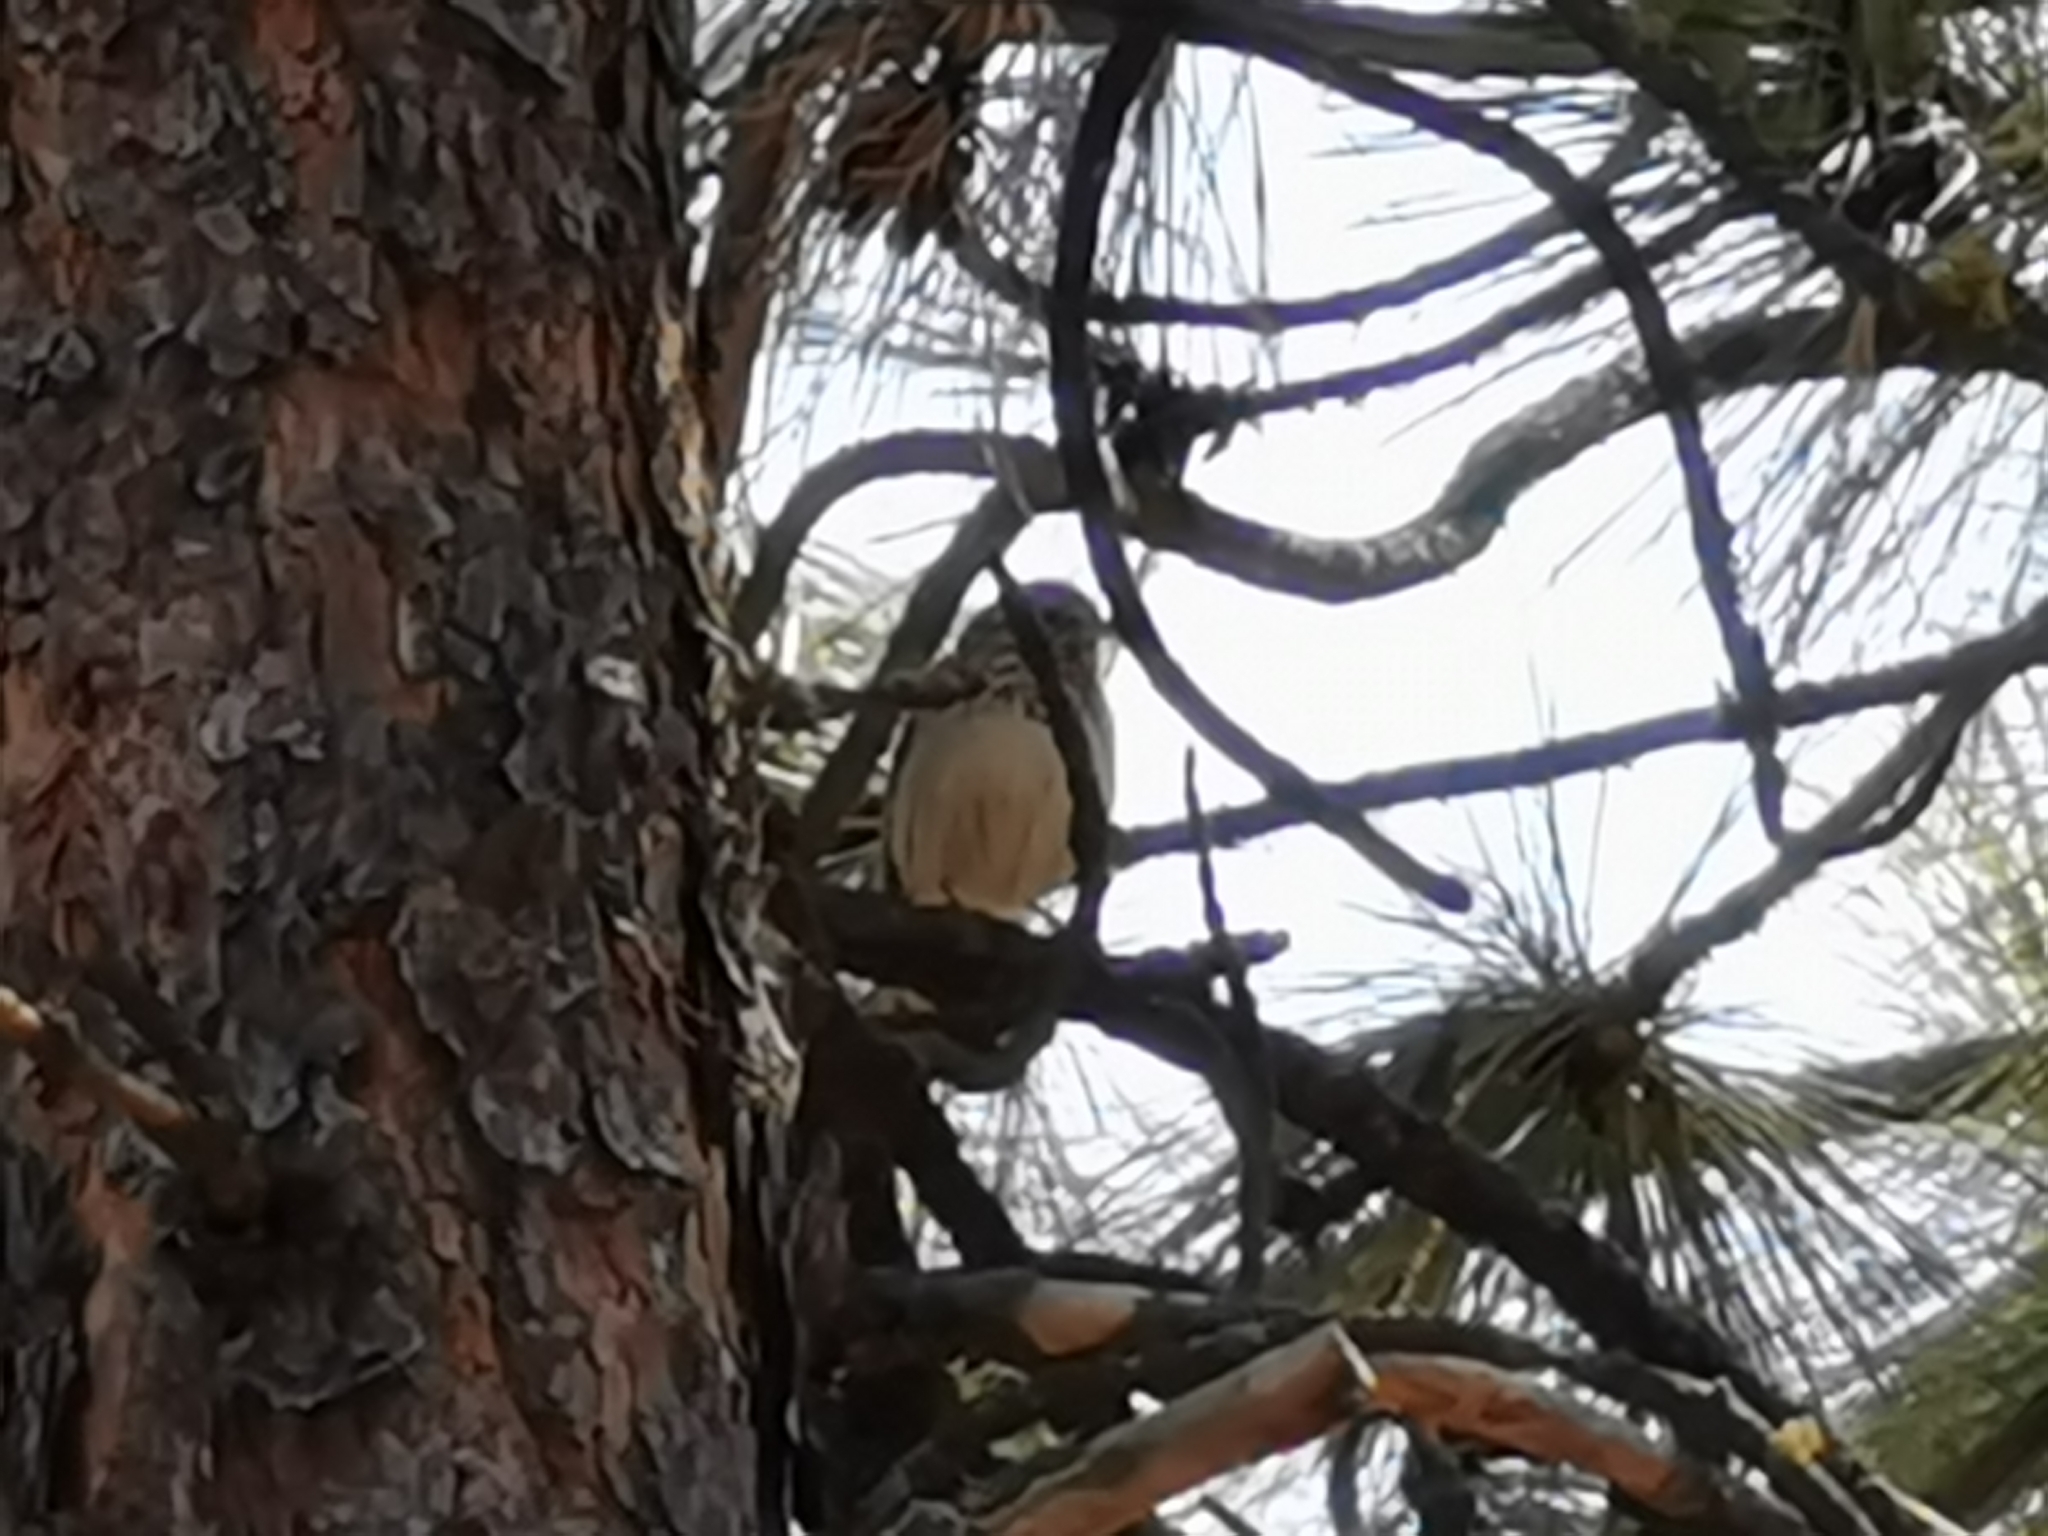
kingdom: Animalia
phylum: Chordata
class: Aves
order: Passeriformes
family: Passerellidae
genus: Pooecetes
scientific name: Pooecetes gramineus
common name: Vesper sparrow
